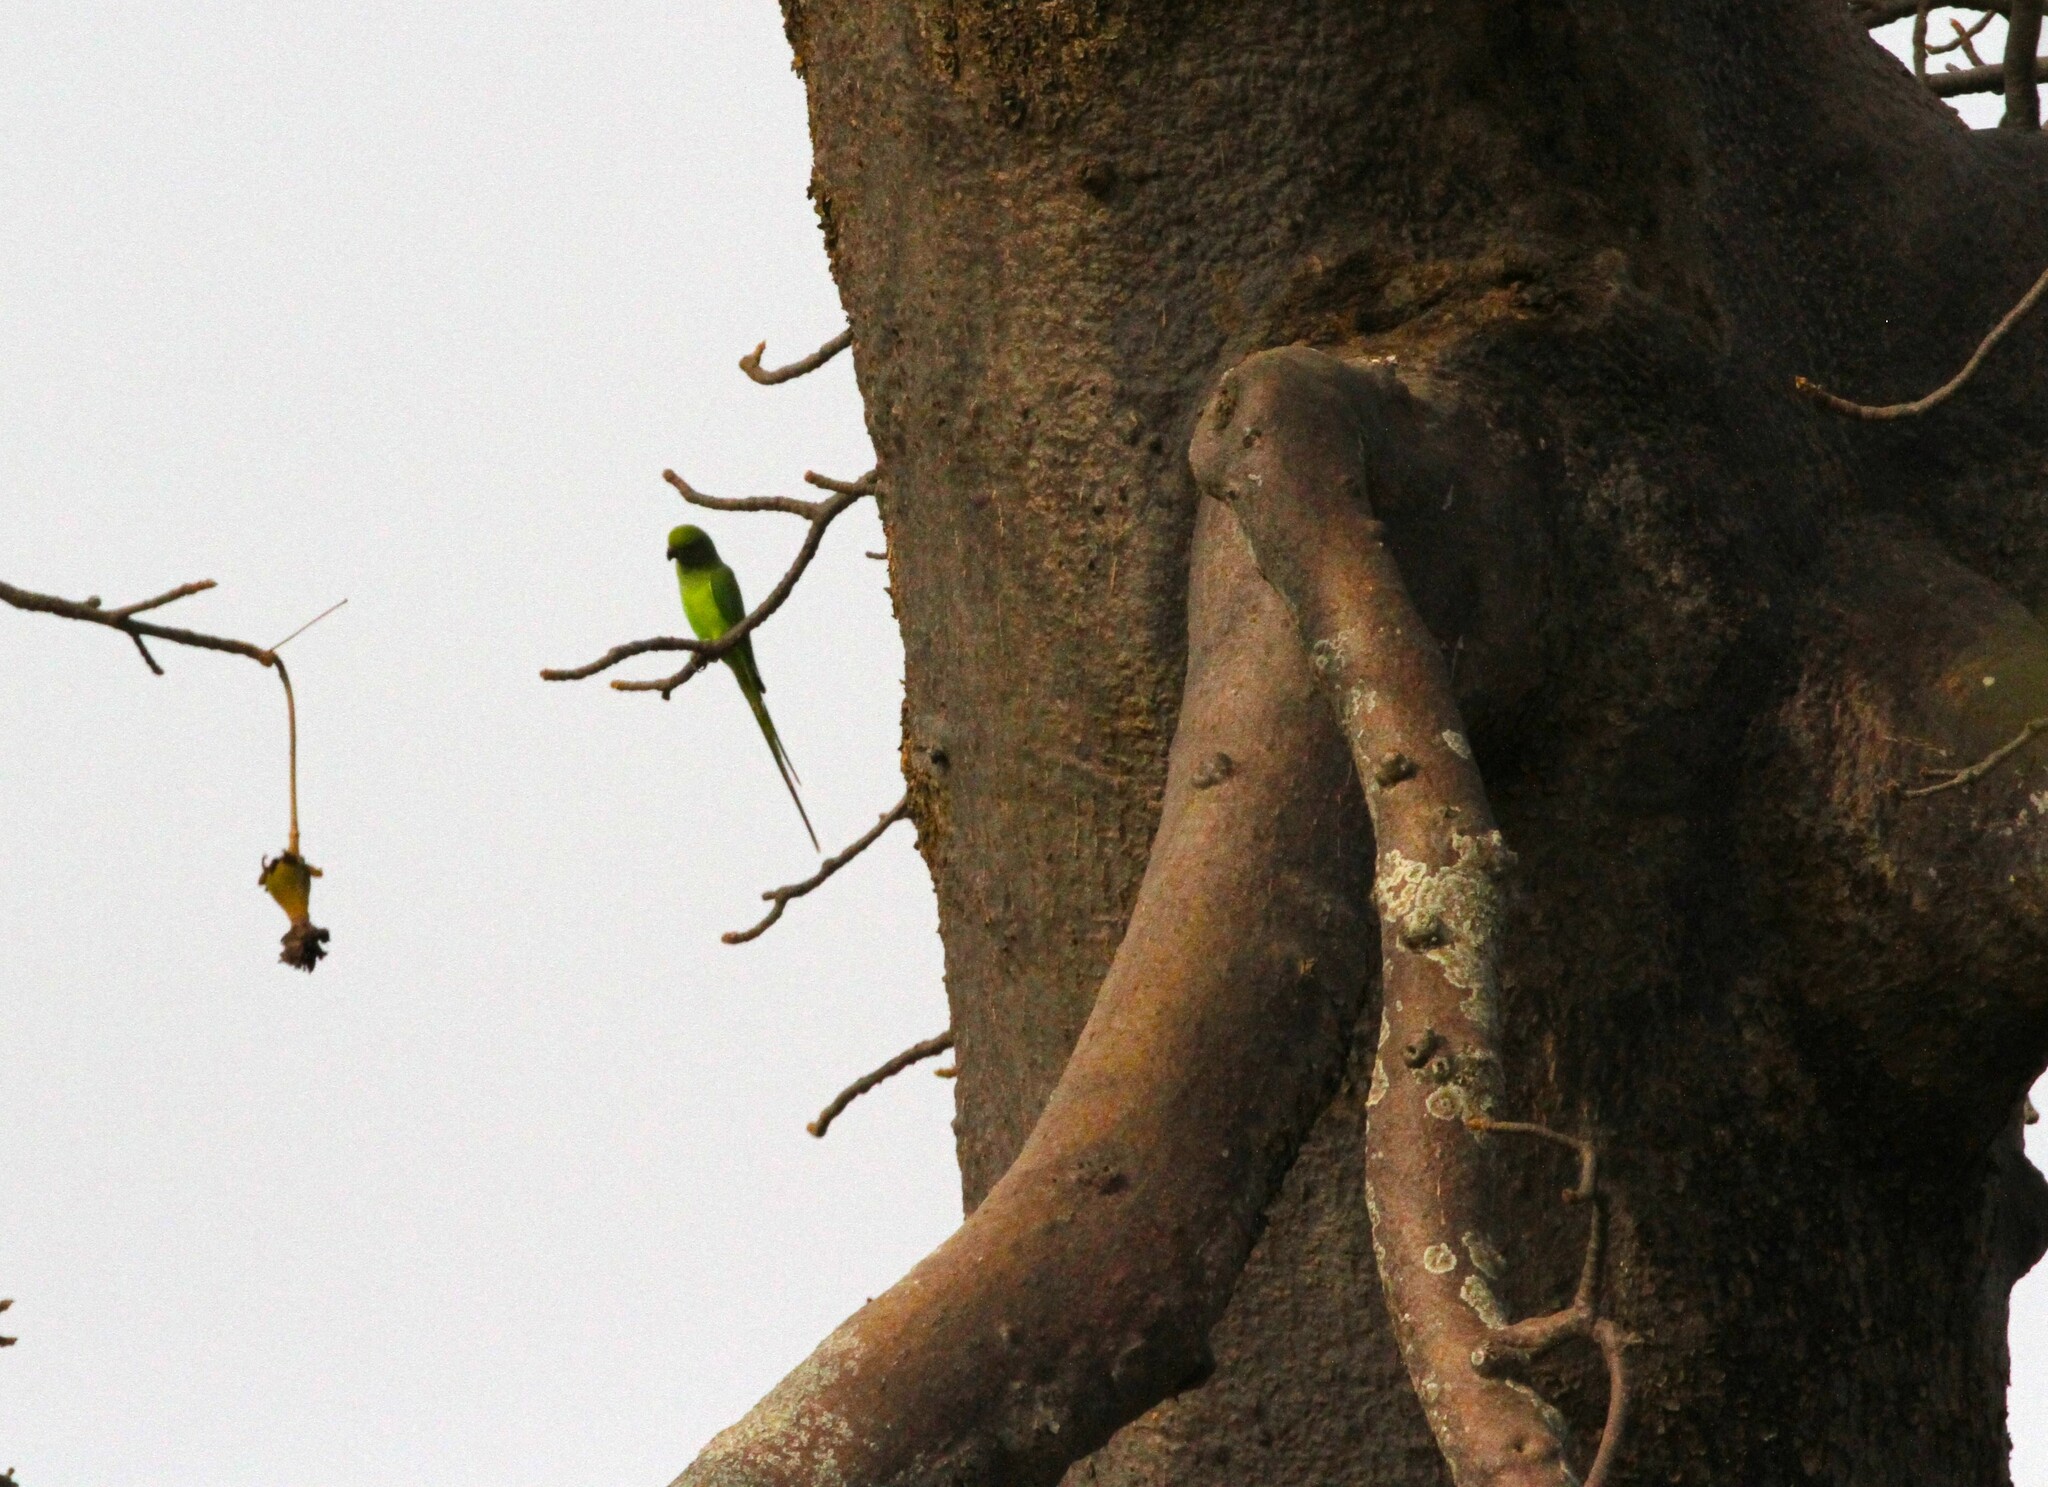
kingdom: Animalia
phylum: Chordata
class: Aves
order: Psittaciformes
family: Psittacidae
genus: Psittacula
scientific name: Psittacula krameri
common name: Rose-ringed parakeet
